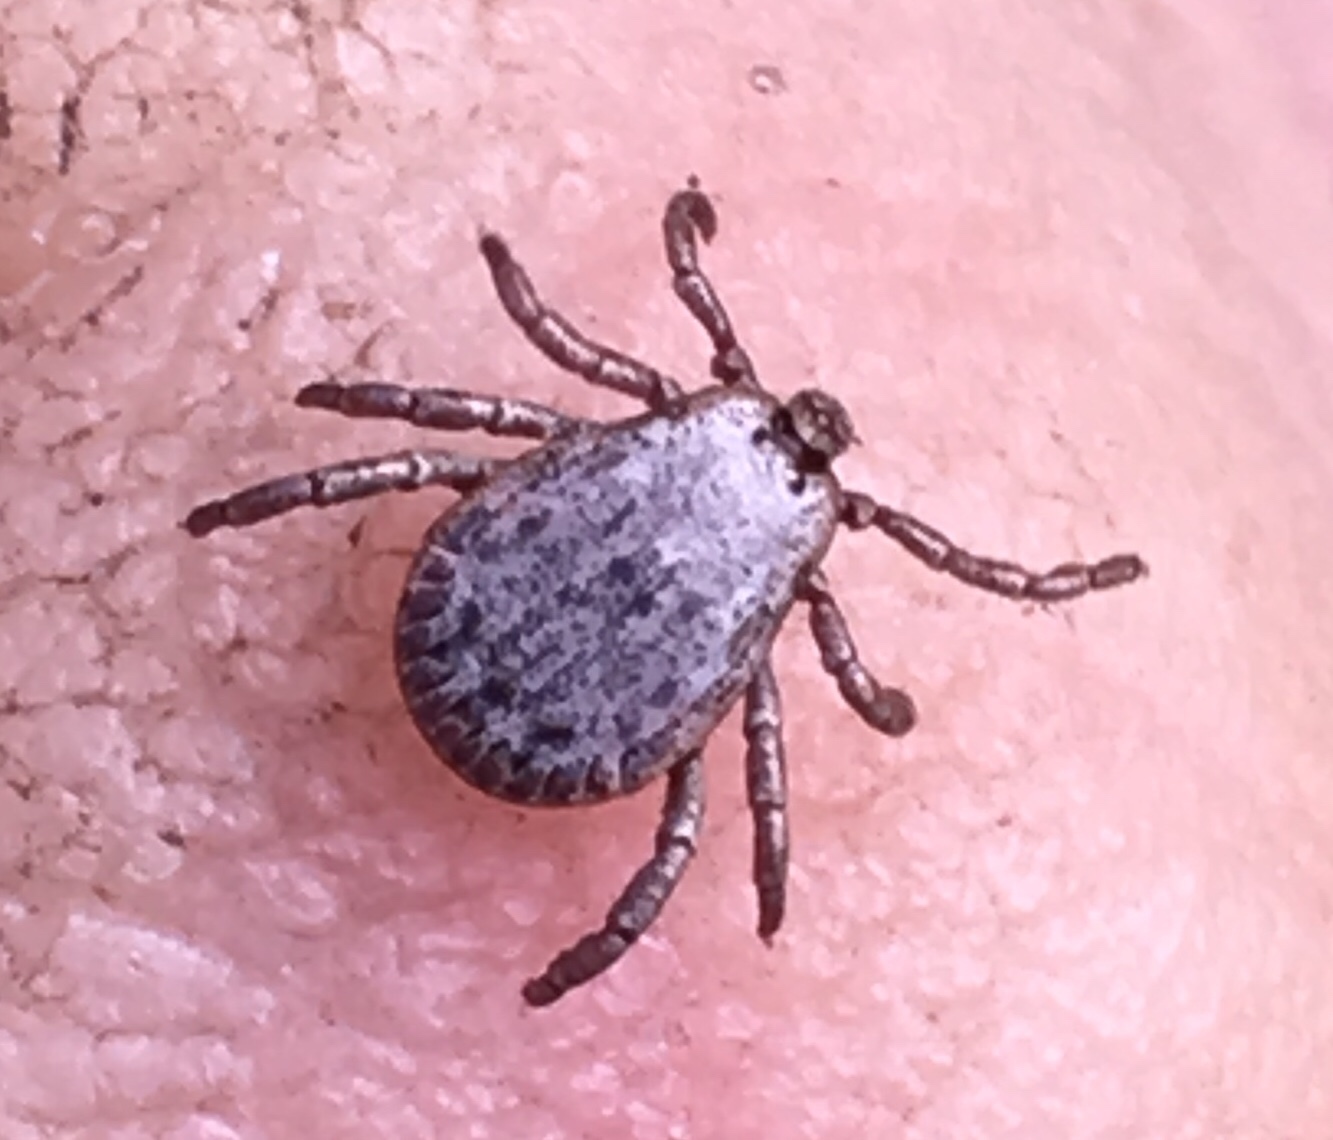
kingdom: Animalia
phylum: Arthropoda
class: Arachnida
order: Ixodida
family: Ixodidae
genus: Dermacentor
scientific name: Dermacentor occidentalis
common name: Net tick
